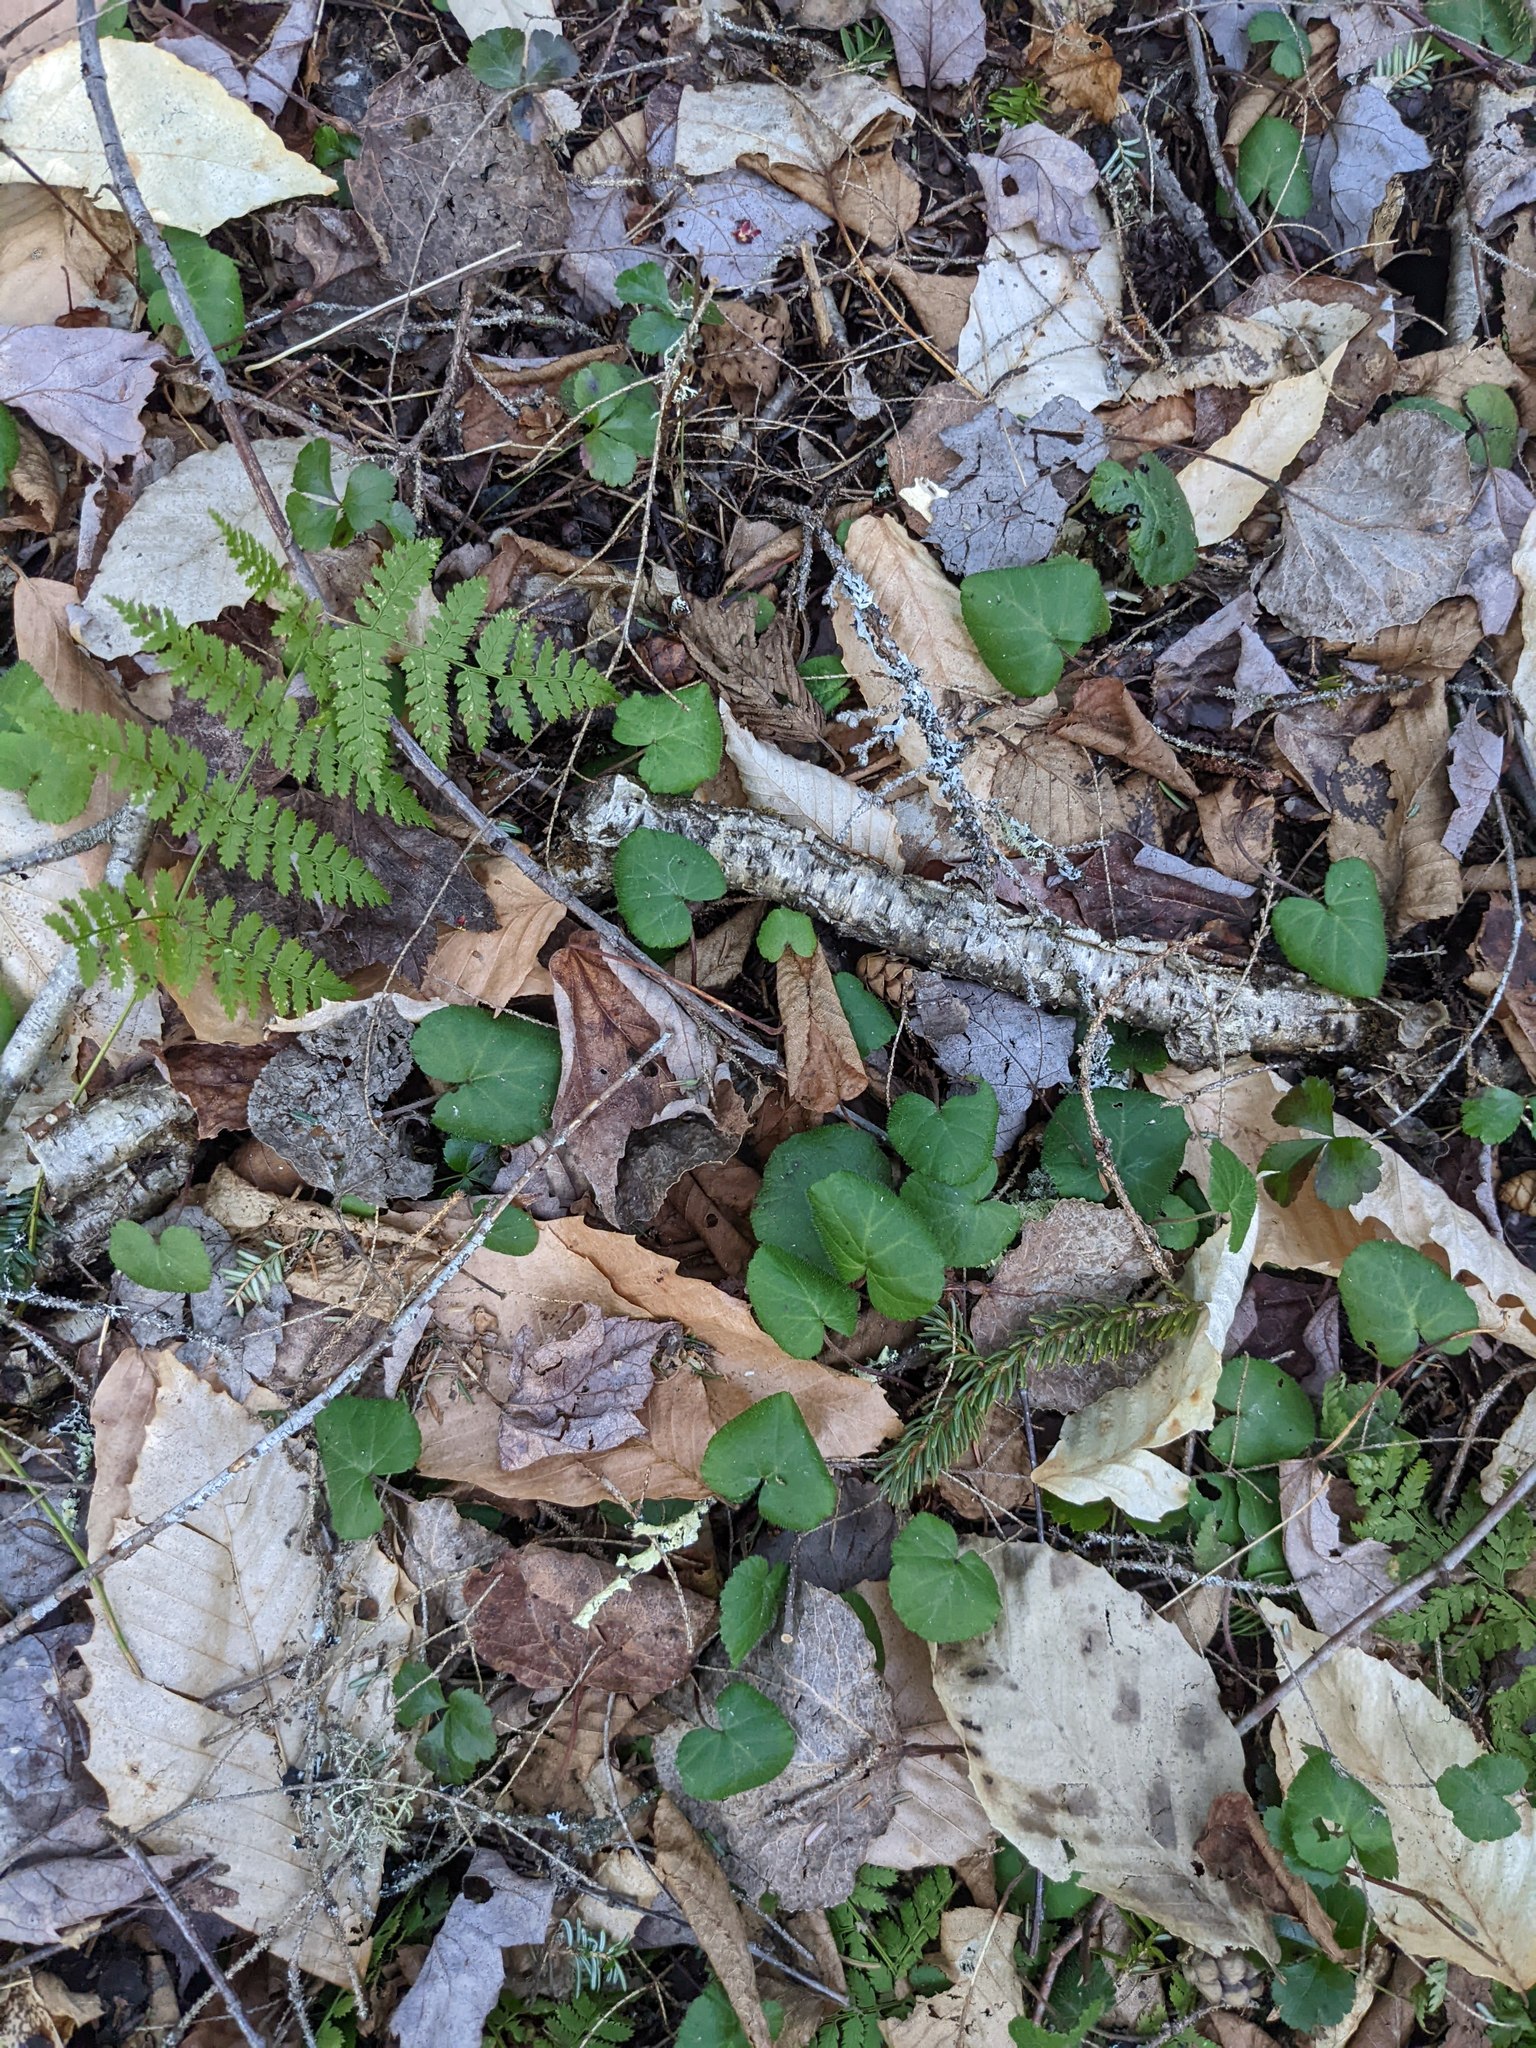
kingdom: Plantae
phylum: Tracheophyta
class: Magnoliopsida
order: Rosales
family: Rosaceae
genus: Dalibarda
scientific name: Dalibarda repens
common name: Dewdrop
